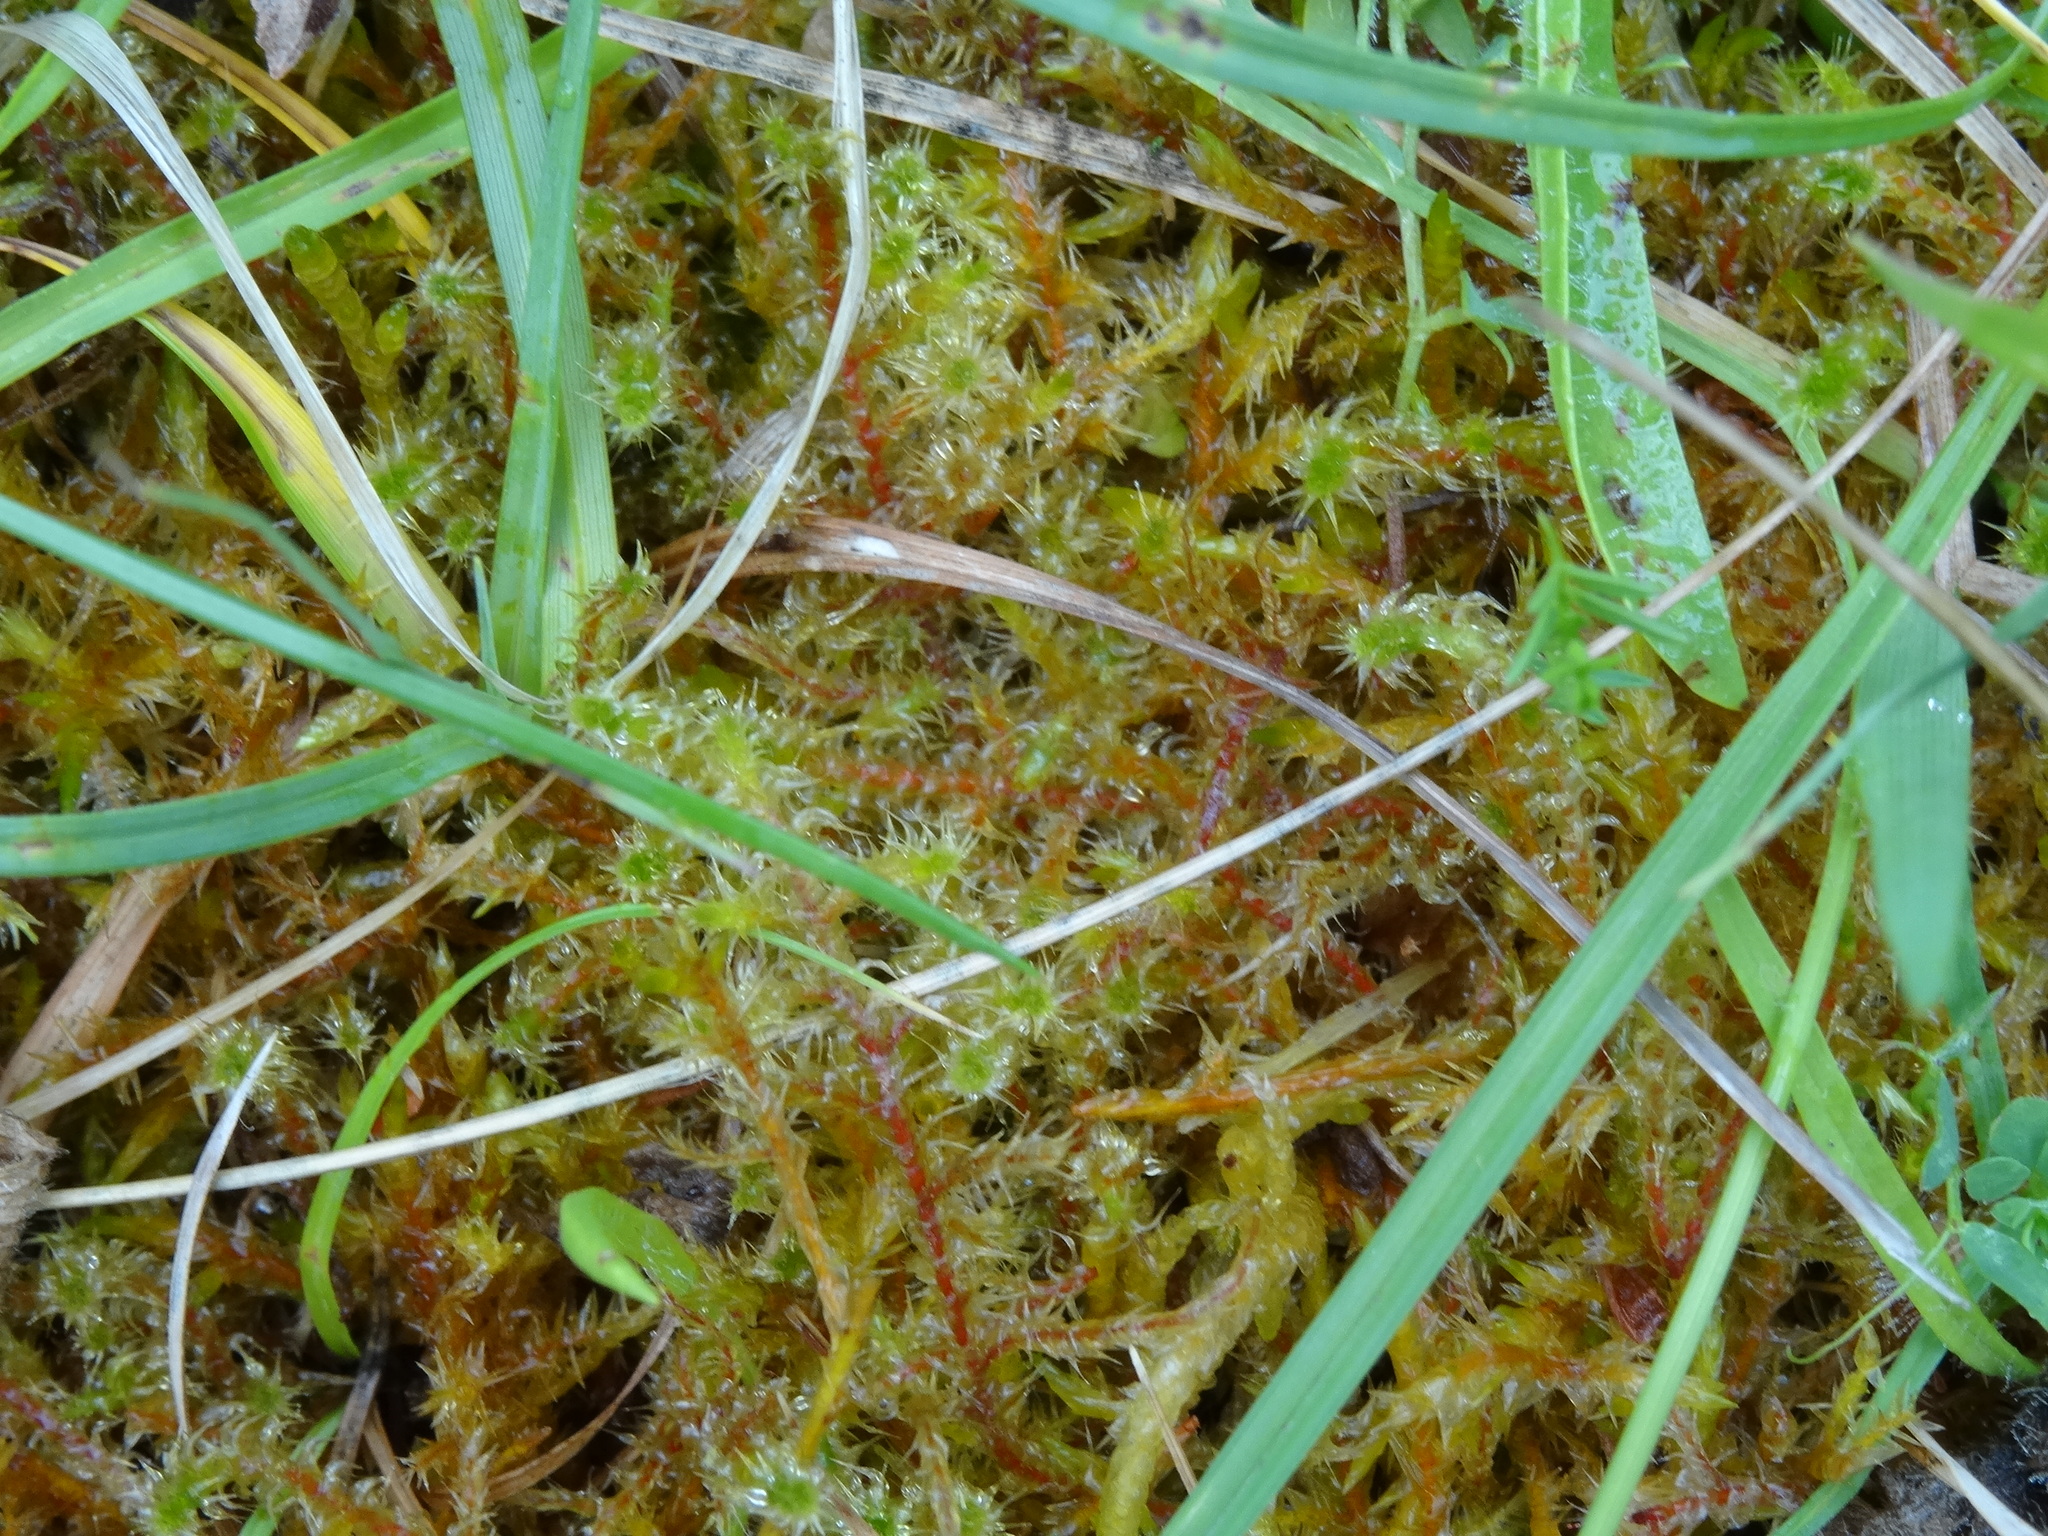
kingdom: Plantae
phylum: Bryophyta
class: Bryopsida
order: Hypnales
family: Hylocomiaceae
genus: Rhytidiadelphus
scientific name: Rhytidiadelphus squarrosus
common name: Springy turf-moss
